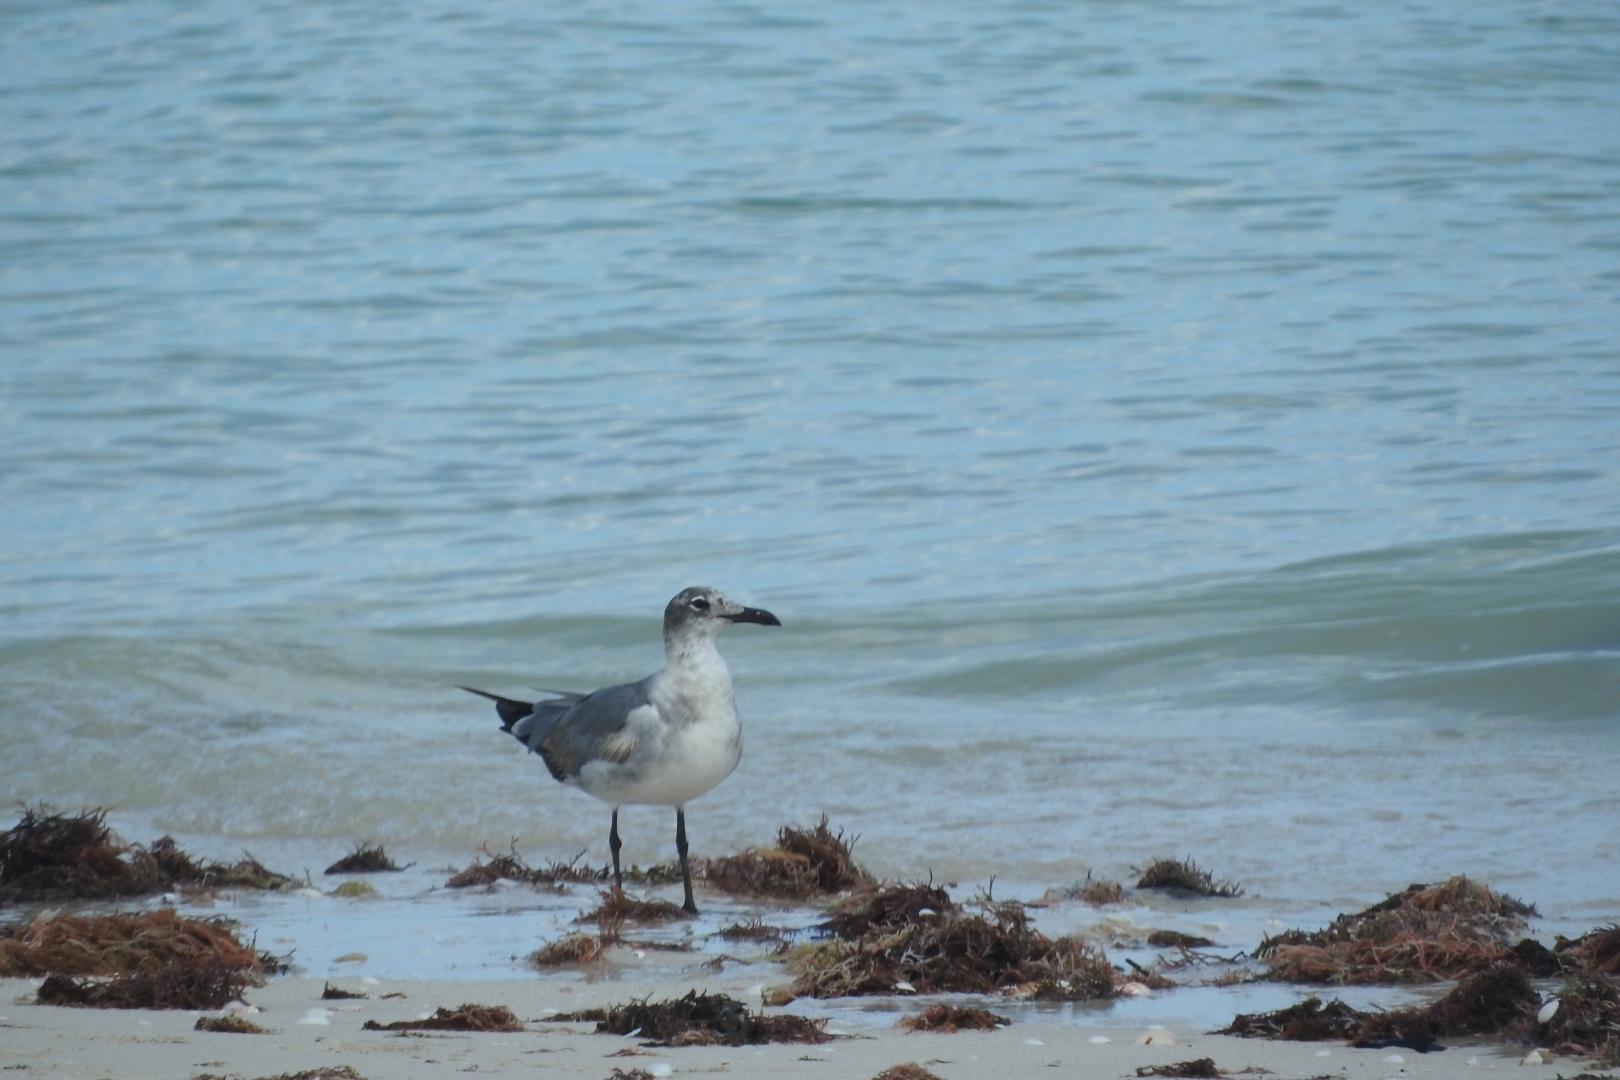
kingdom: Animalia
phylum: Chordata
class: Aves
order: Charadriiformes
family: Laridae
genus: Leucophaeus
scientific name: Leucophaeus atricilla
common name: Laughing gull
